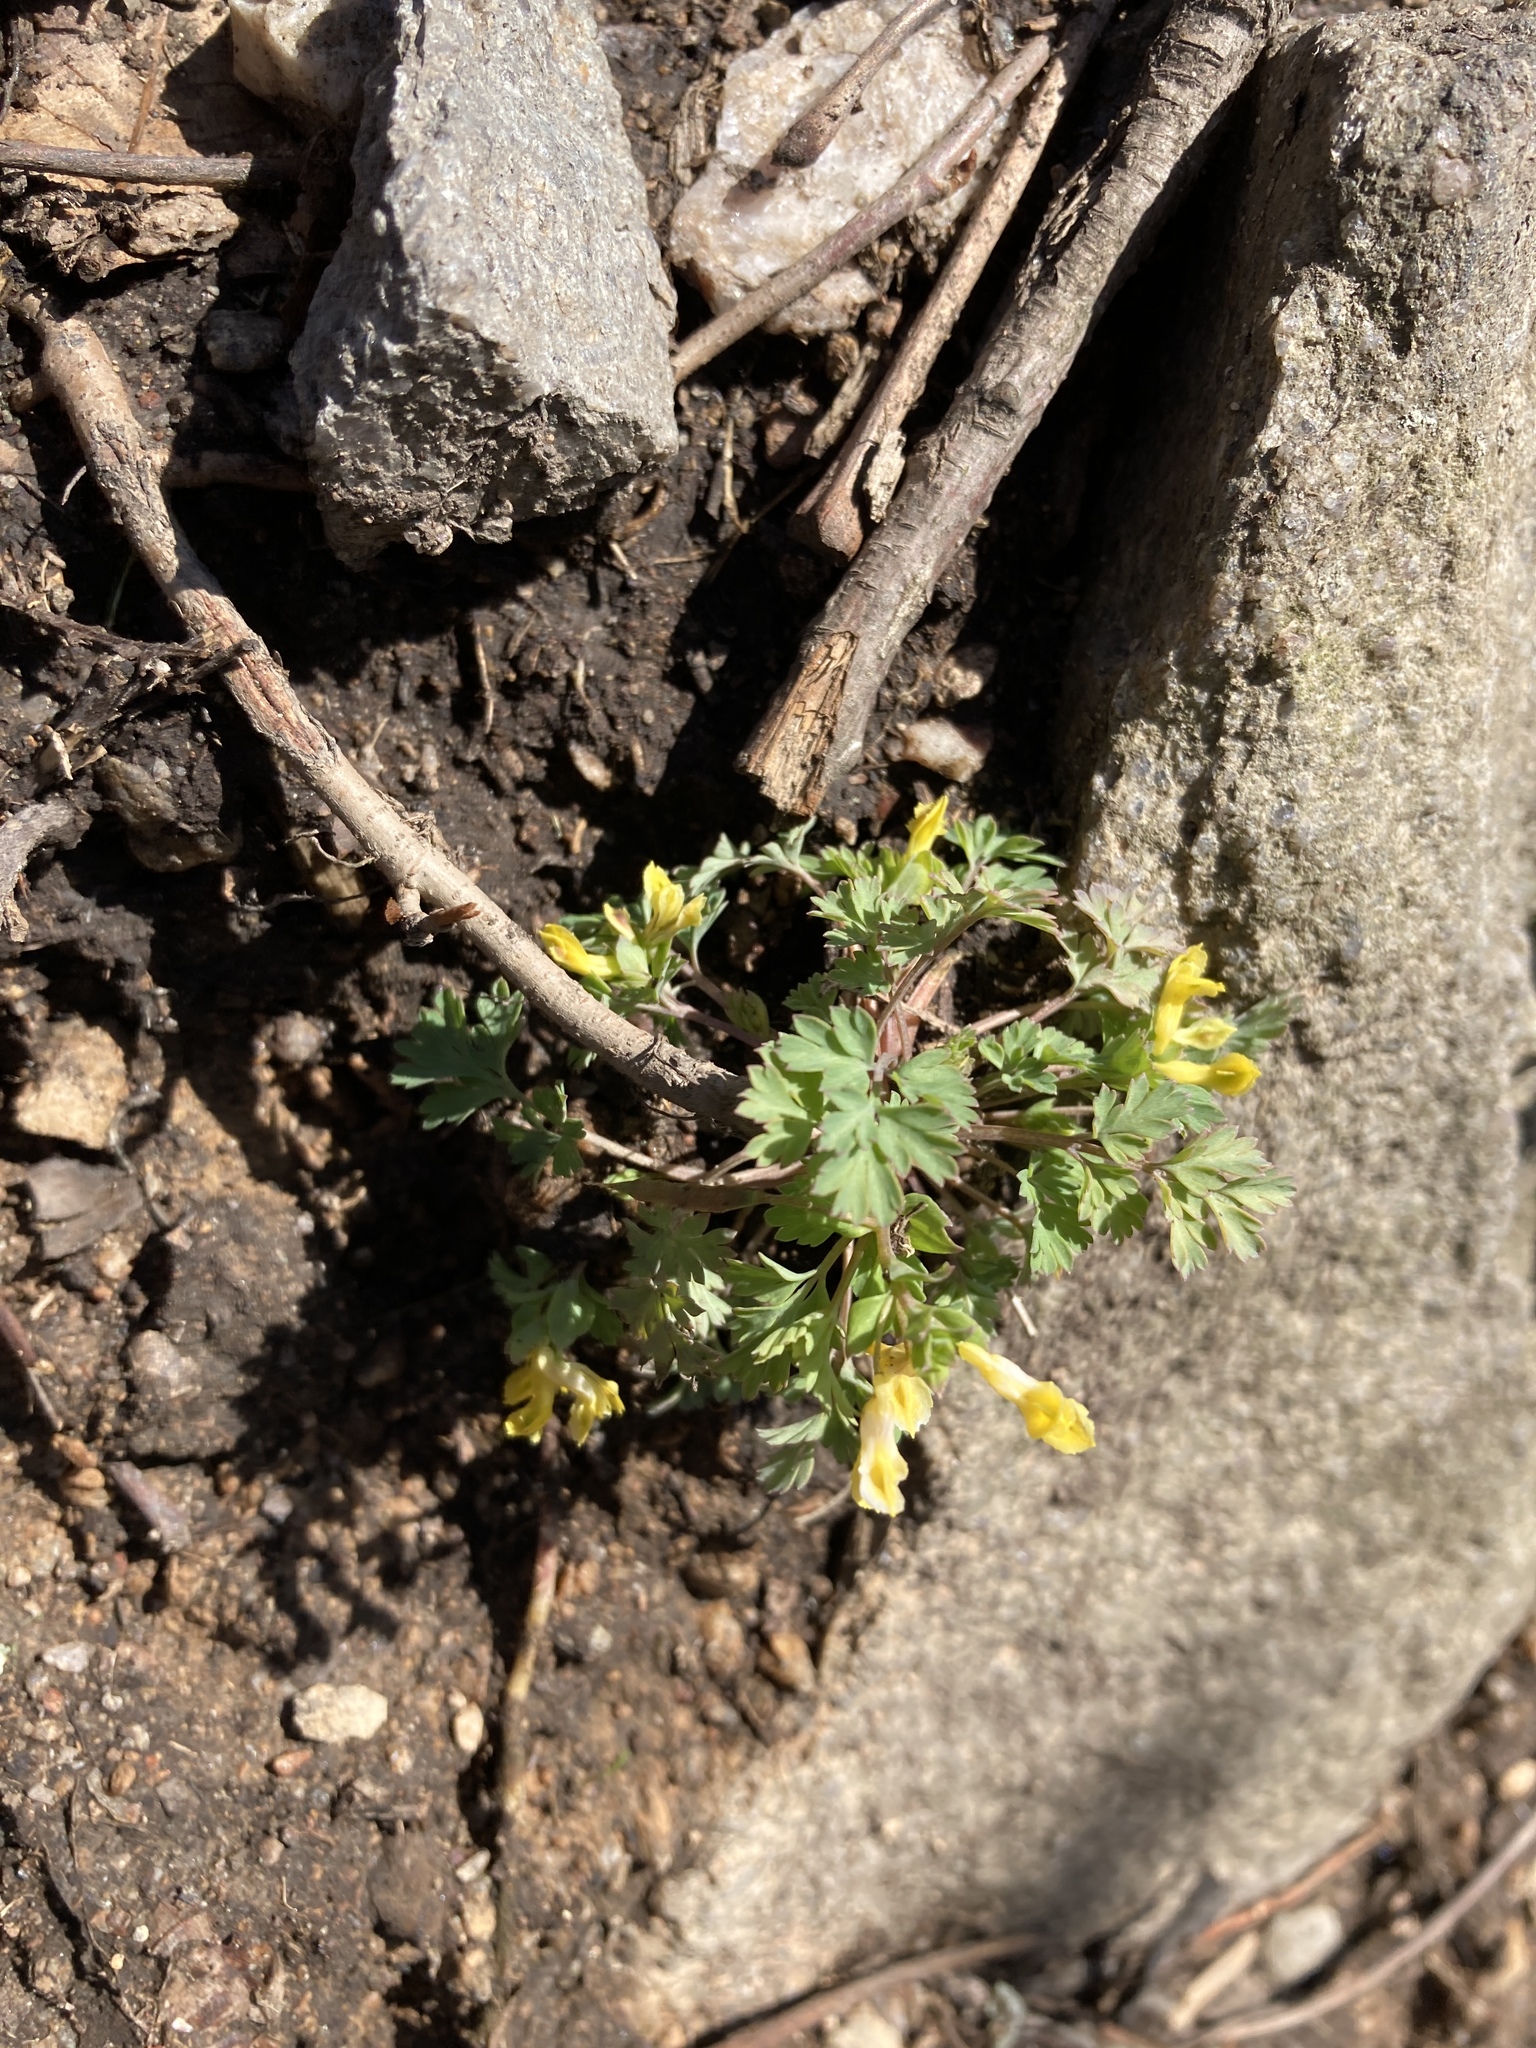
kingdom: Plantae
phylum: Tracheophyta
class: Magnoliopsida
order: Ranunculales
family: Papaveraceae
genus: Corydalis
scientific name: Corydalis flavula
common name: Yellow corydalis
